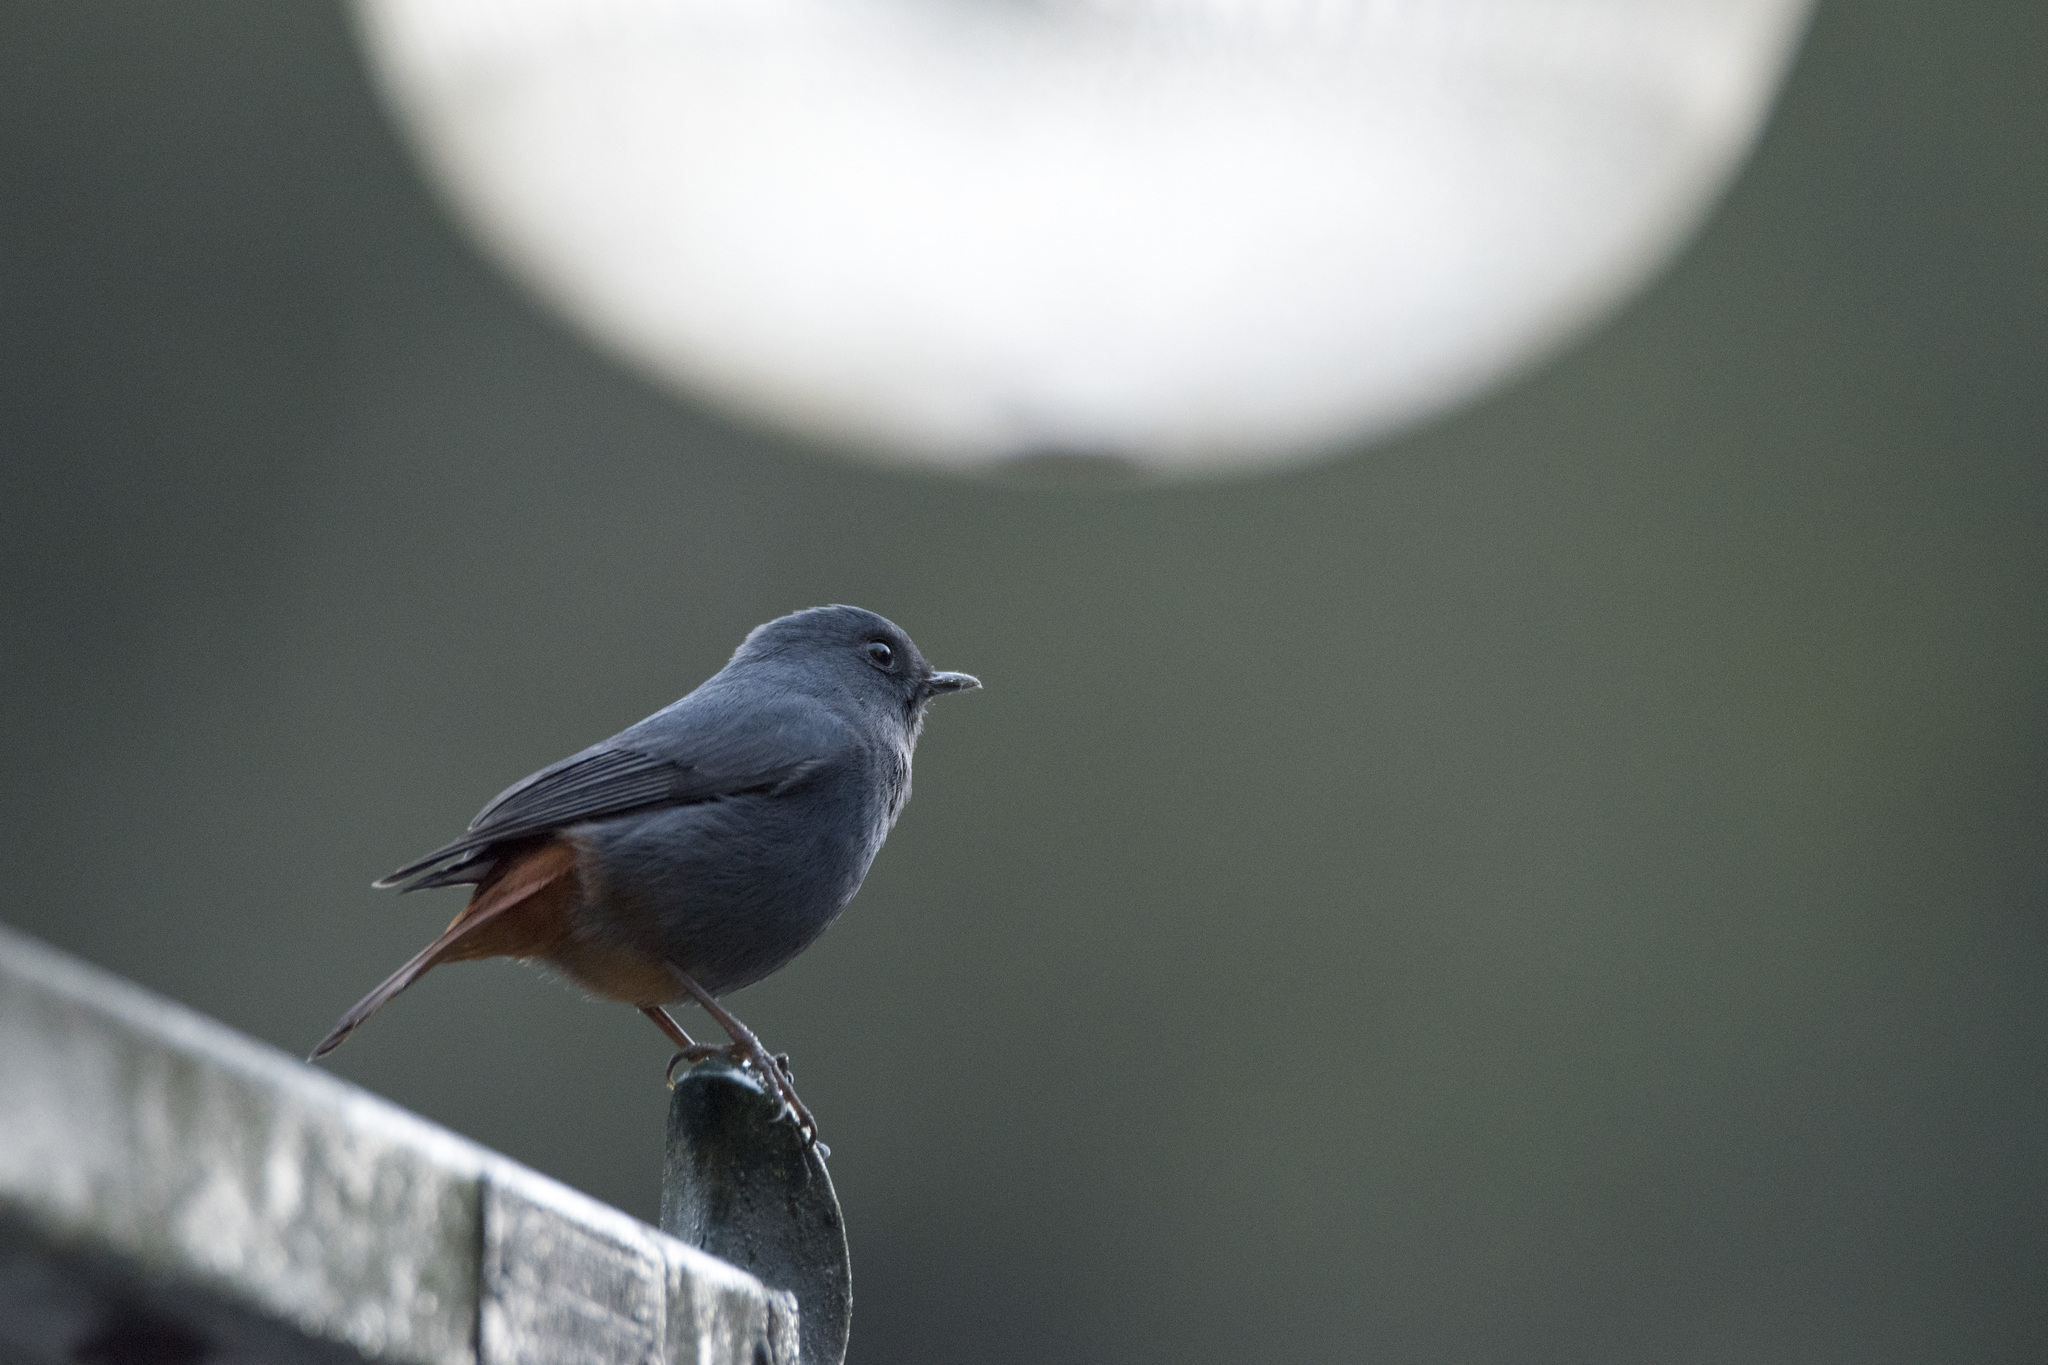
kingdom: Animalia
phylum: Chordata
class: Aves
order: Passeriformes
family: Muscicapidae
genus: Rhyacornis
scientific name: Rhyacornis fuliginosa
